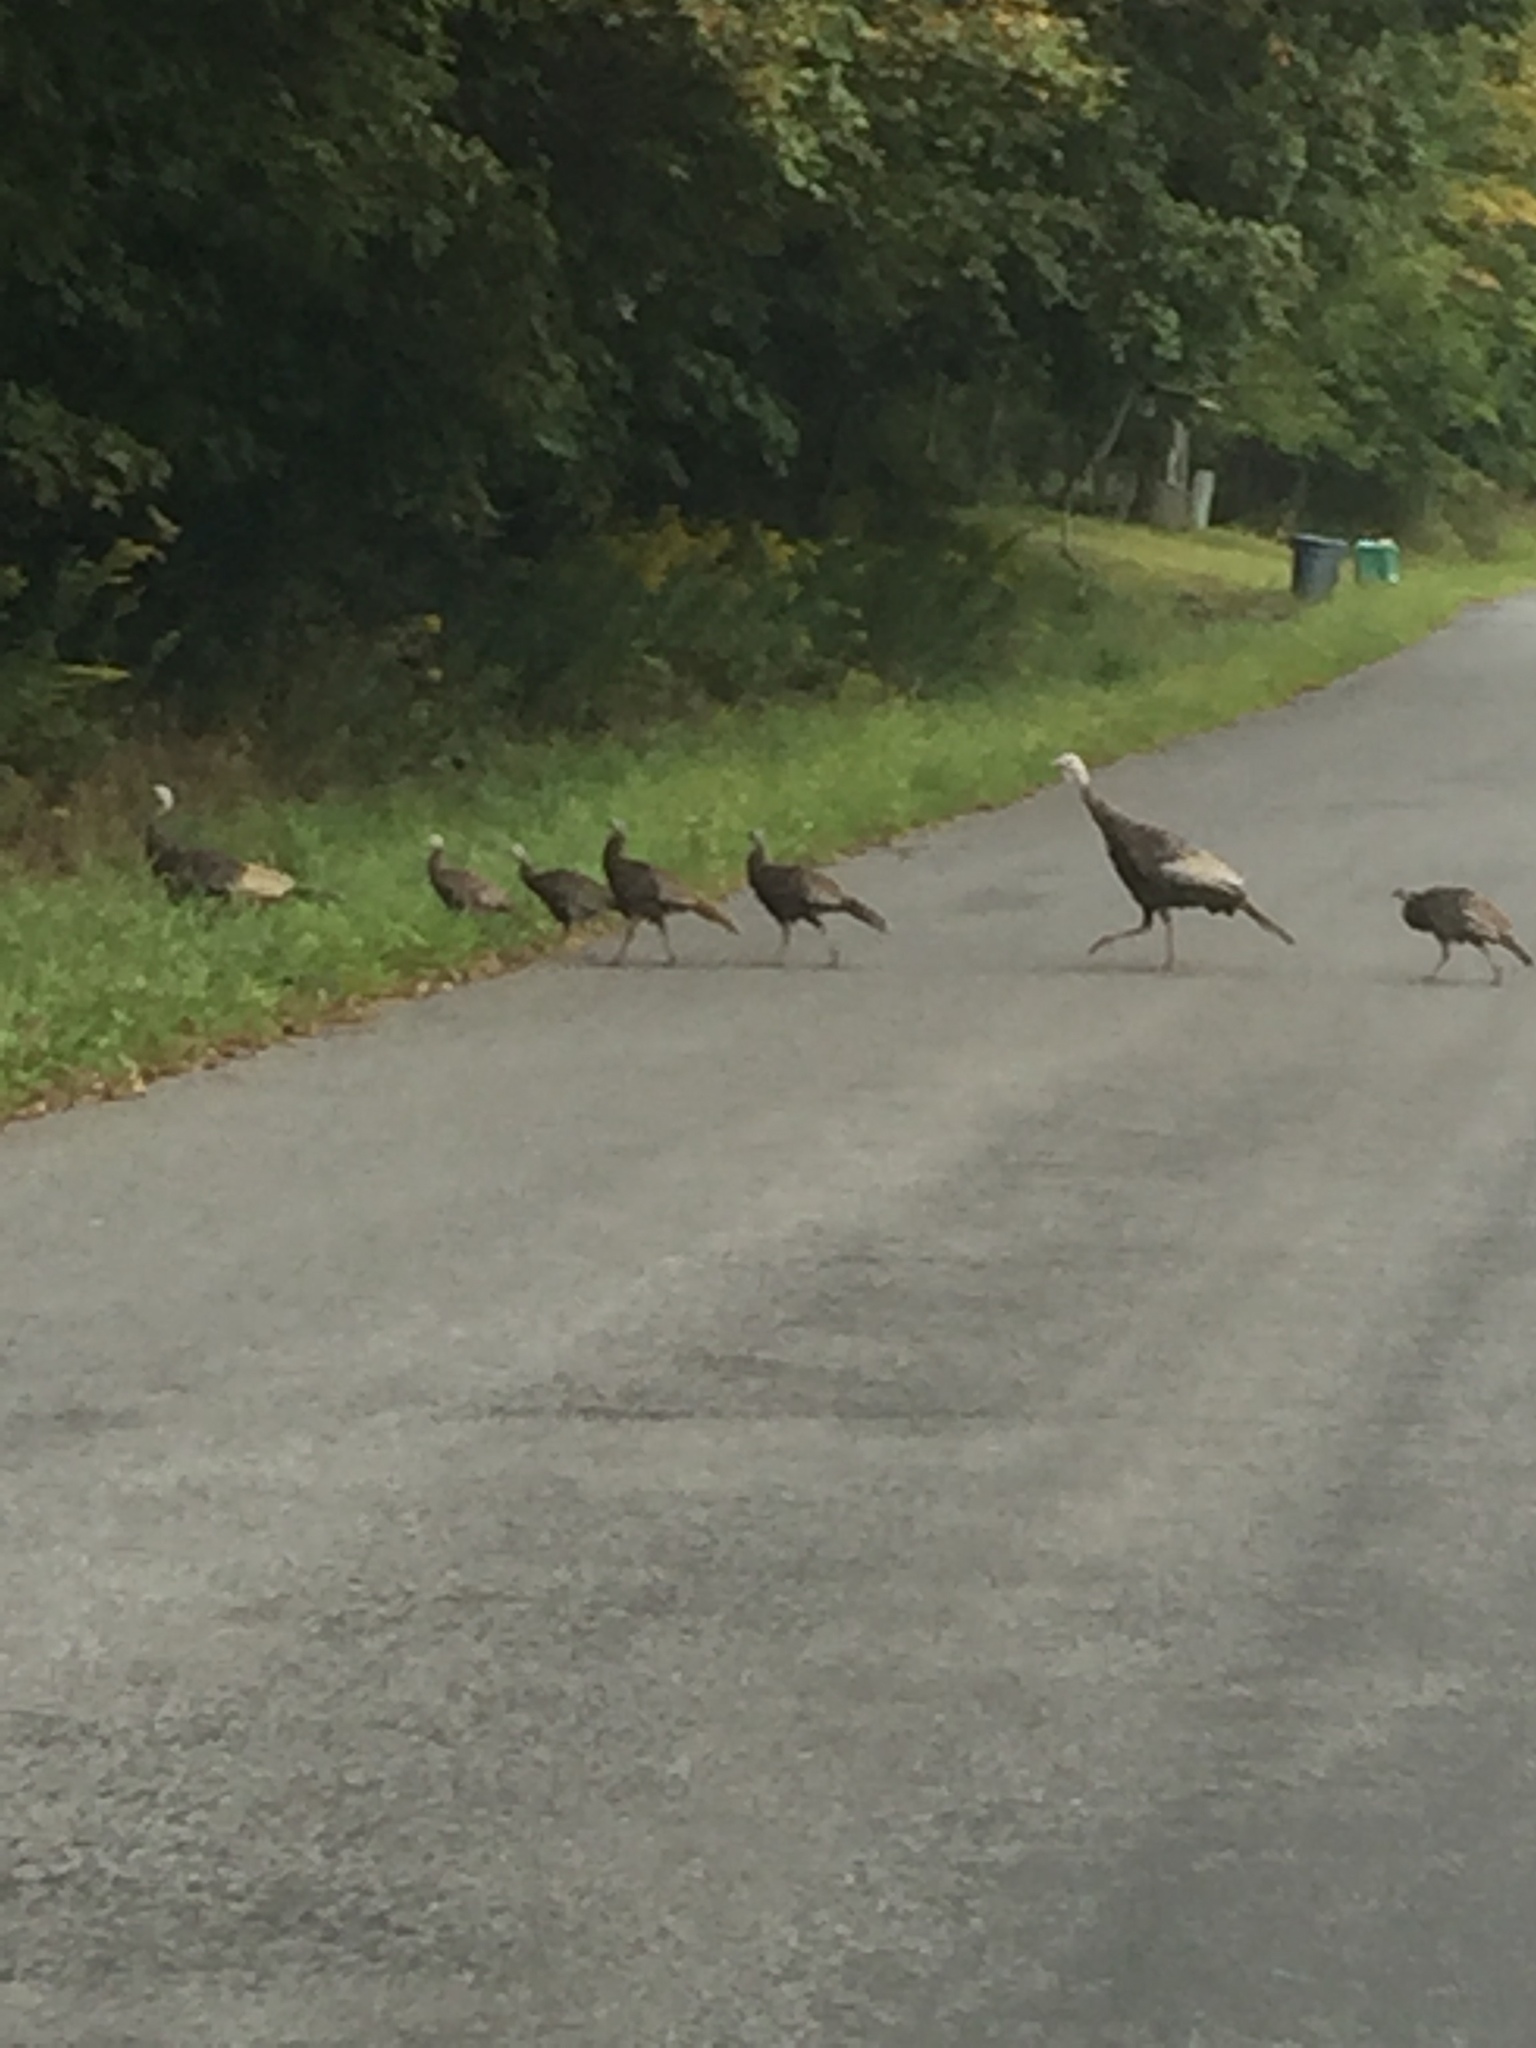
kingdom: Animalia
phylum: Chordata
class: Aves
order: Galliformes
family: Phasianidae
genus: Meleagris
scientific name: Meleagris gallopavo
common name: Wild turkey
